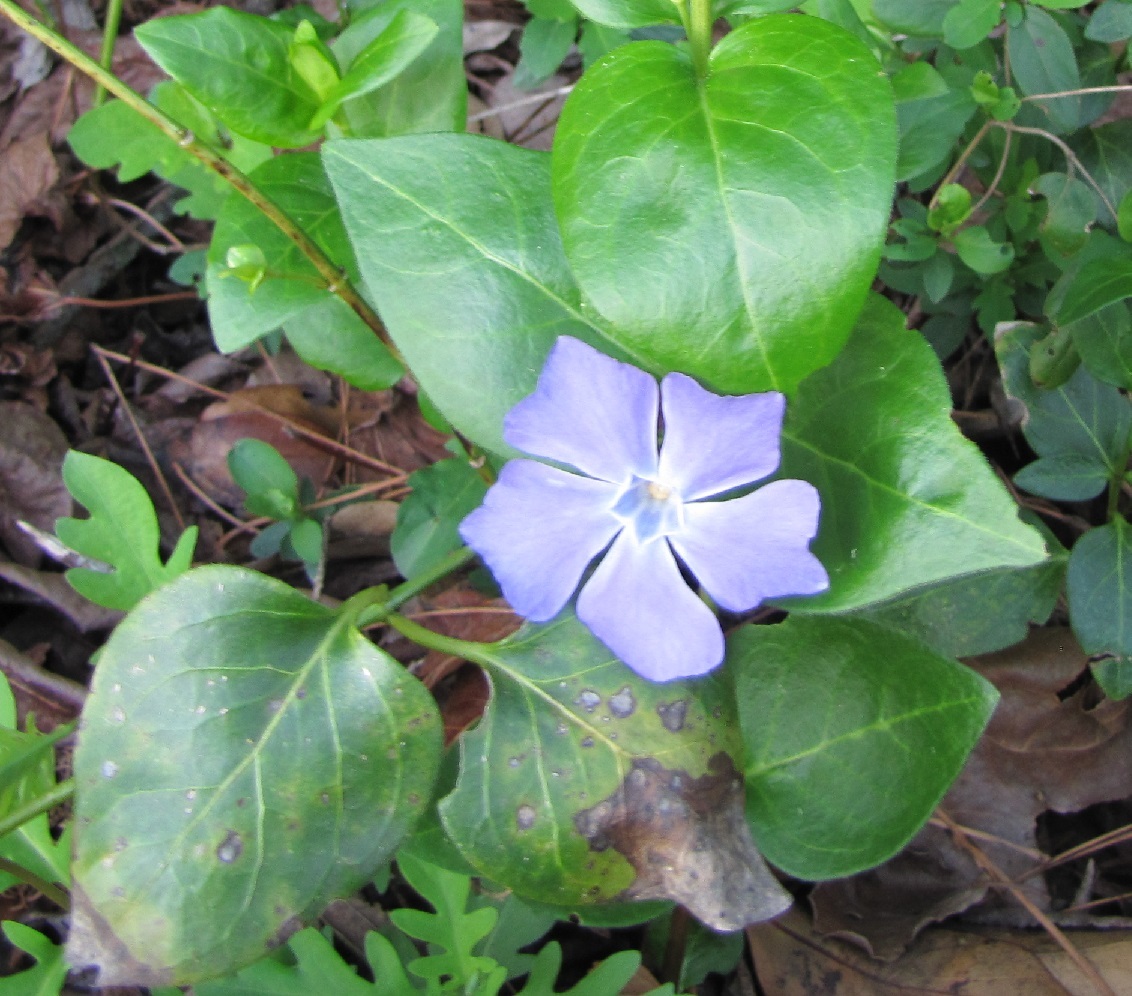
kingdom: Plantae
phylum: Tracheophyta
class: Magnoliopsida
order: Gentianales
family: Apocynaceae
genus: Vinca
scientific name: Vinca major
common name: Greater periwinkle
